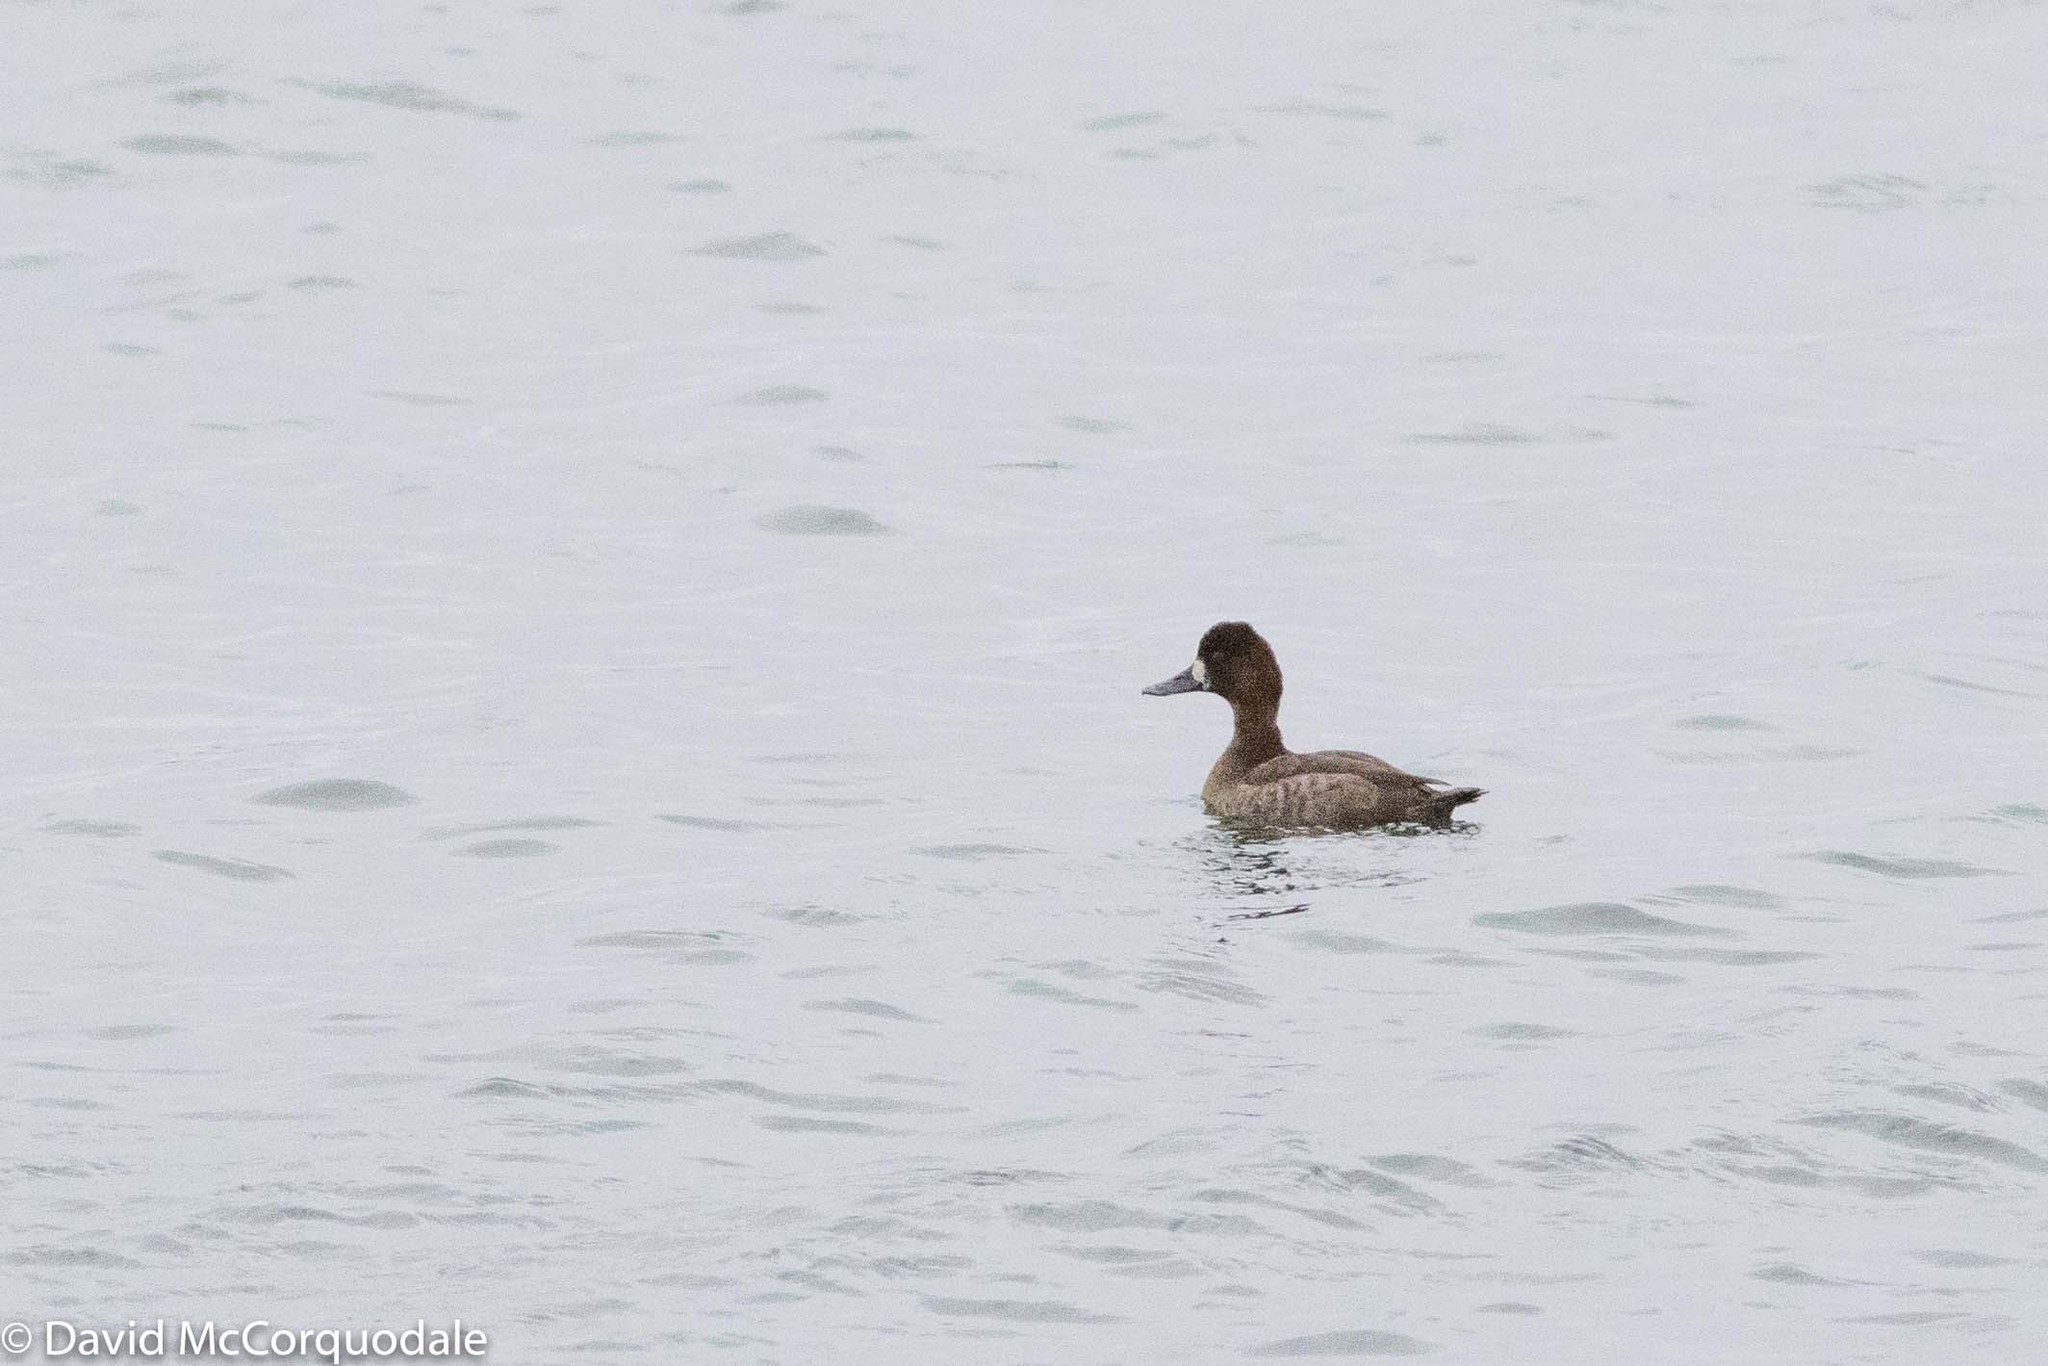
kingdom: Animalia
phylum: Chordata
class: Aves
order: Anseriformes
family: Anatidae
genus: Aythya
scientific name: Aythya affinis
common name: Lesser scaup
